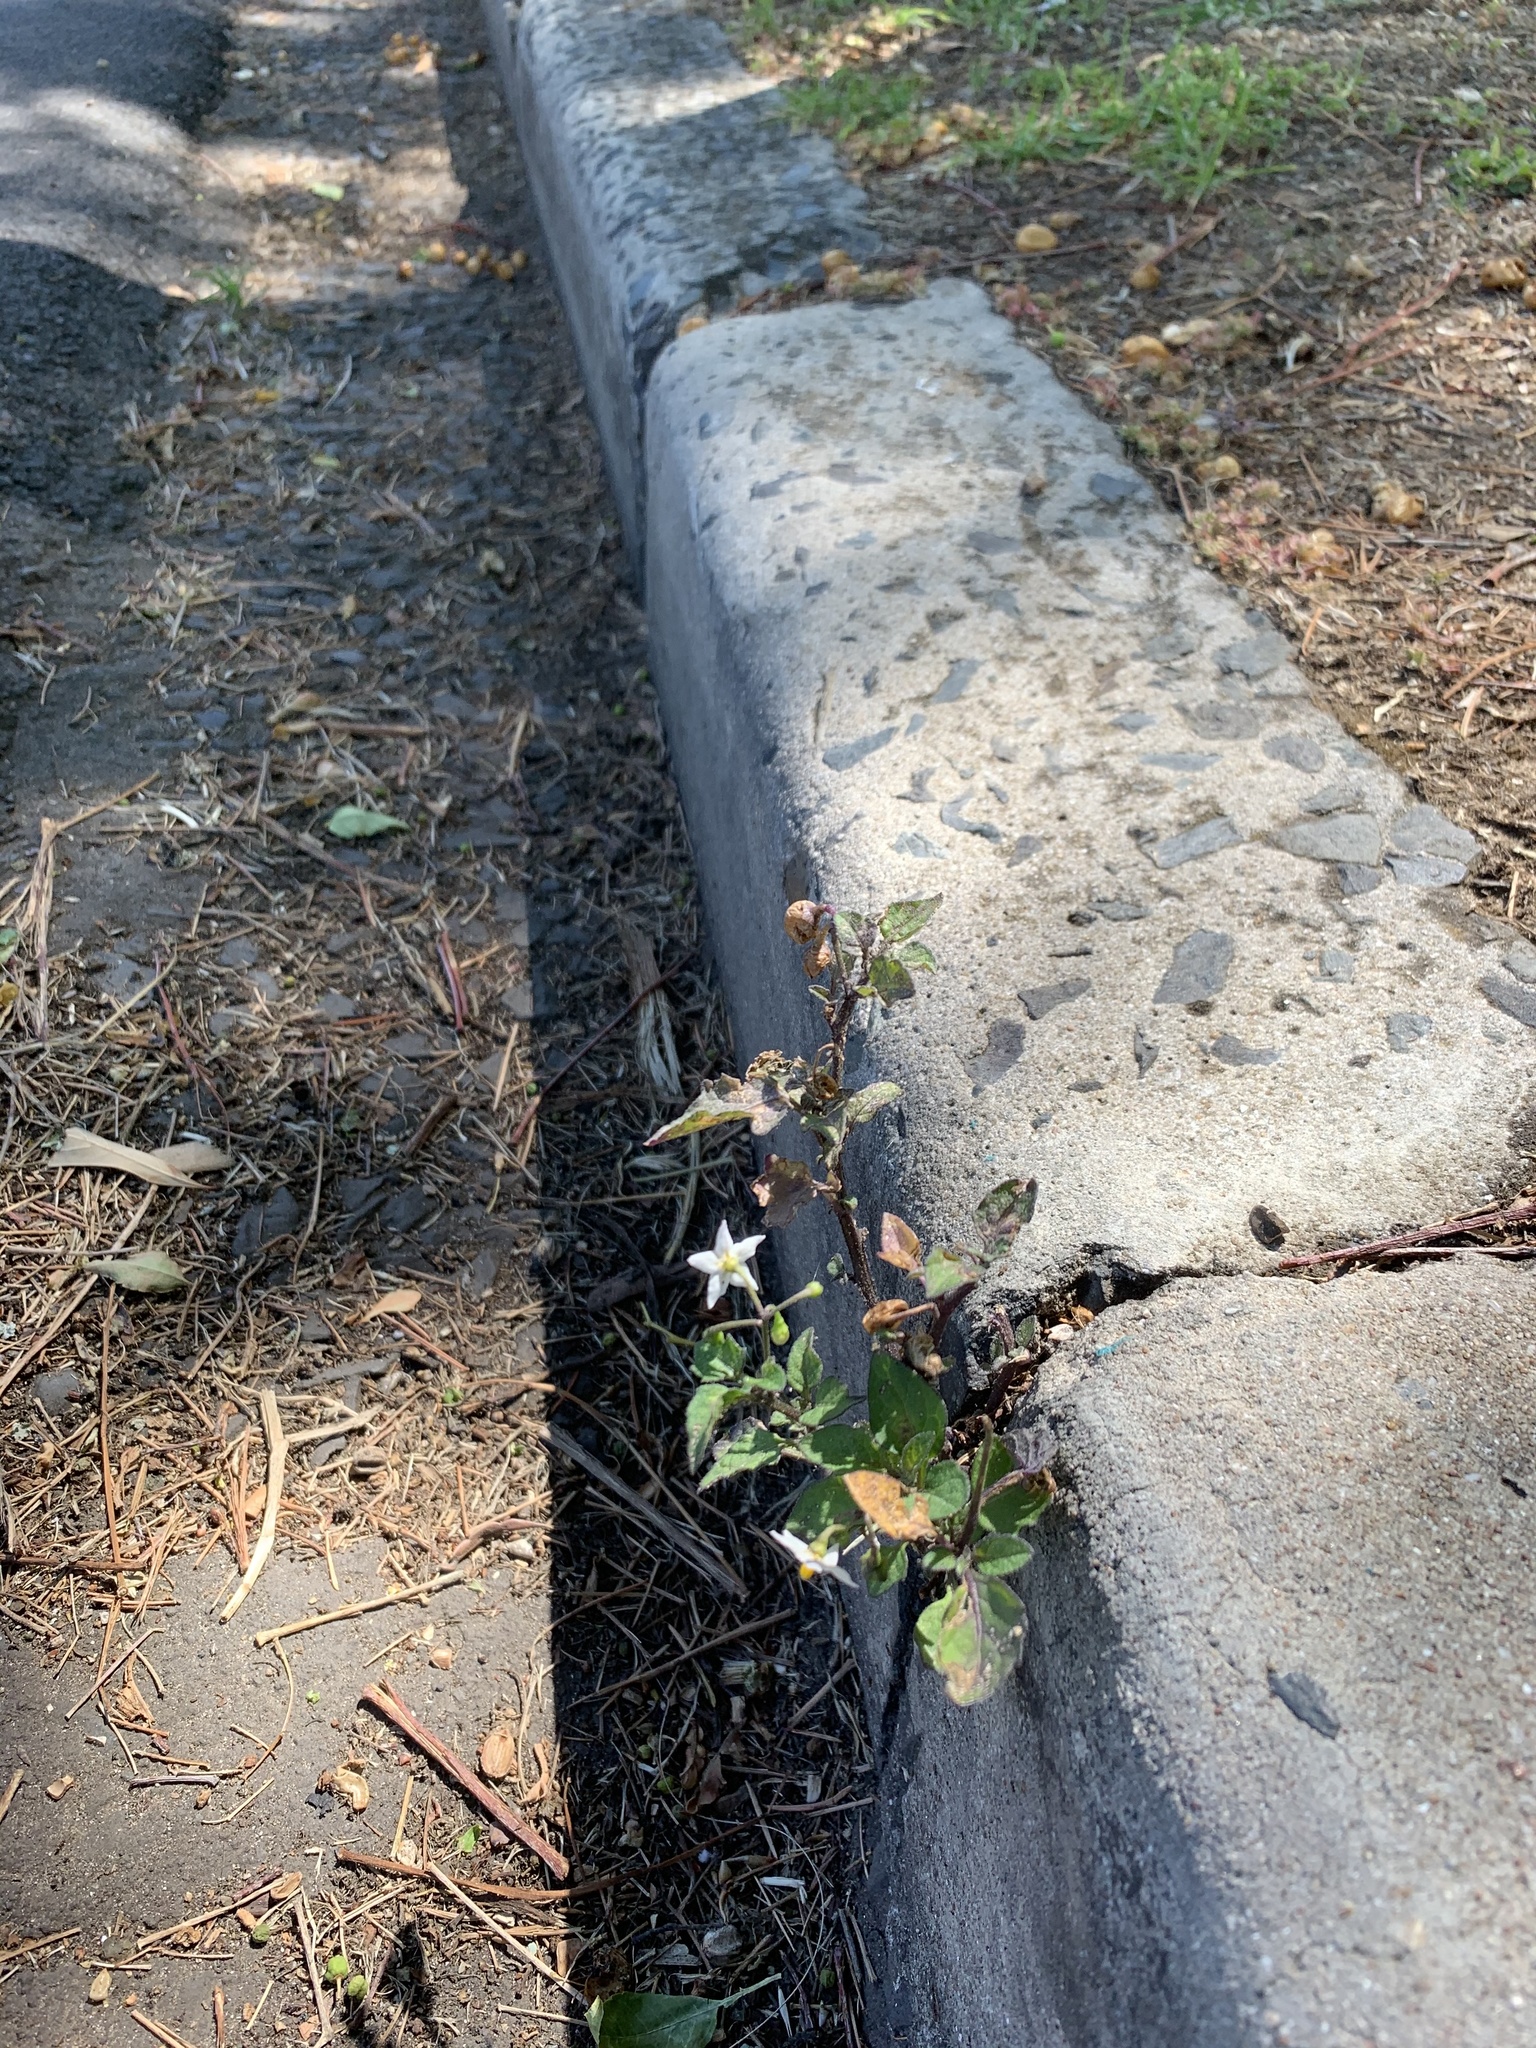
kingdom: Plantae
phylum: Tracheophyta
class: Magnoliopsida
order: Solanales
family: Solanaceae
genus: Solanum
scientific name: Solanum nigrum
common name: Black nightshade
